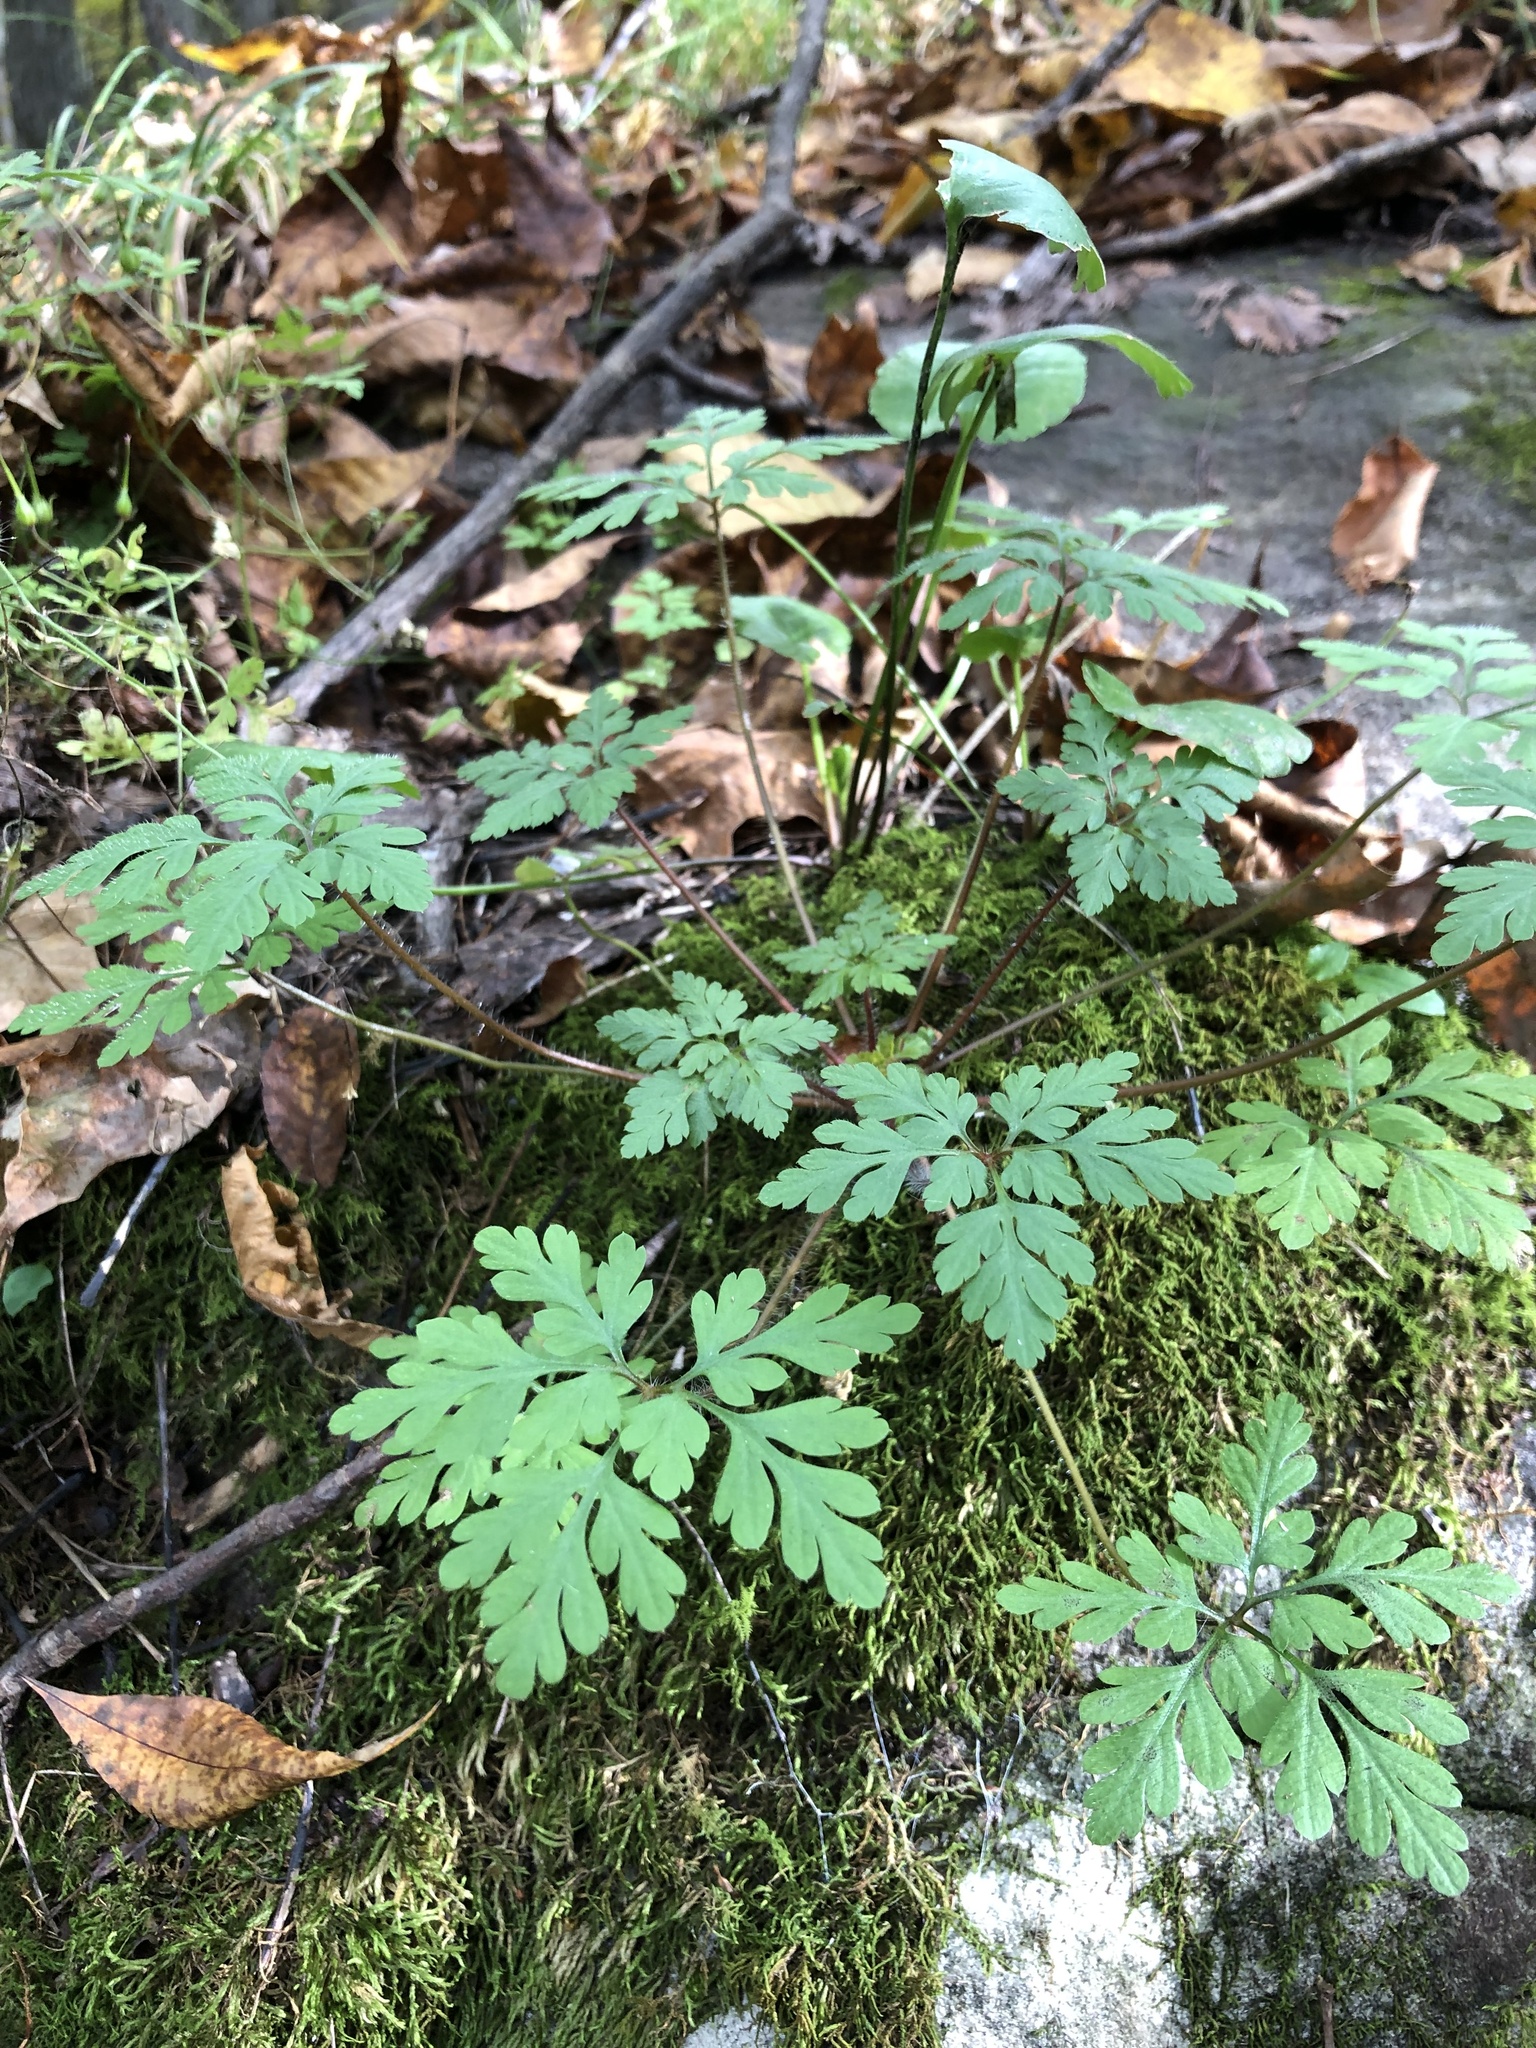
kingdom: Plantae
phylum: Tracheophyta
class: Magnoliopsida
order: Geraniales
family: Geraniaceae
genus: Geranium
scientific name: Geranium robertianum
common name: Herb-robert
